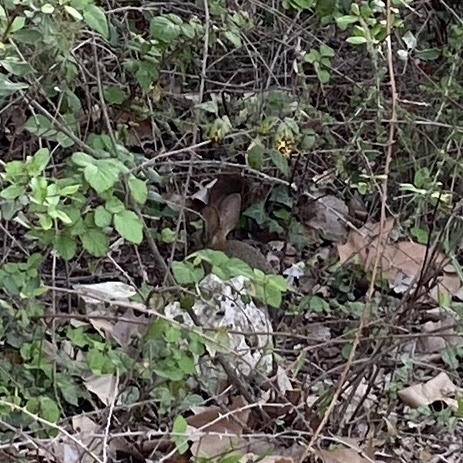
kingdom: Animalia
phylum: Chordata
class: Mammalia
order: Lagomorpha
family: Leporidae
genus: Oryctolagus
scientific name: Oryctolagus cuniculus
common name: European rabbit
